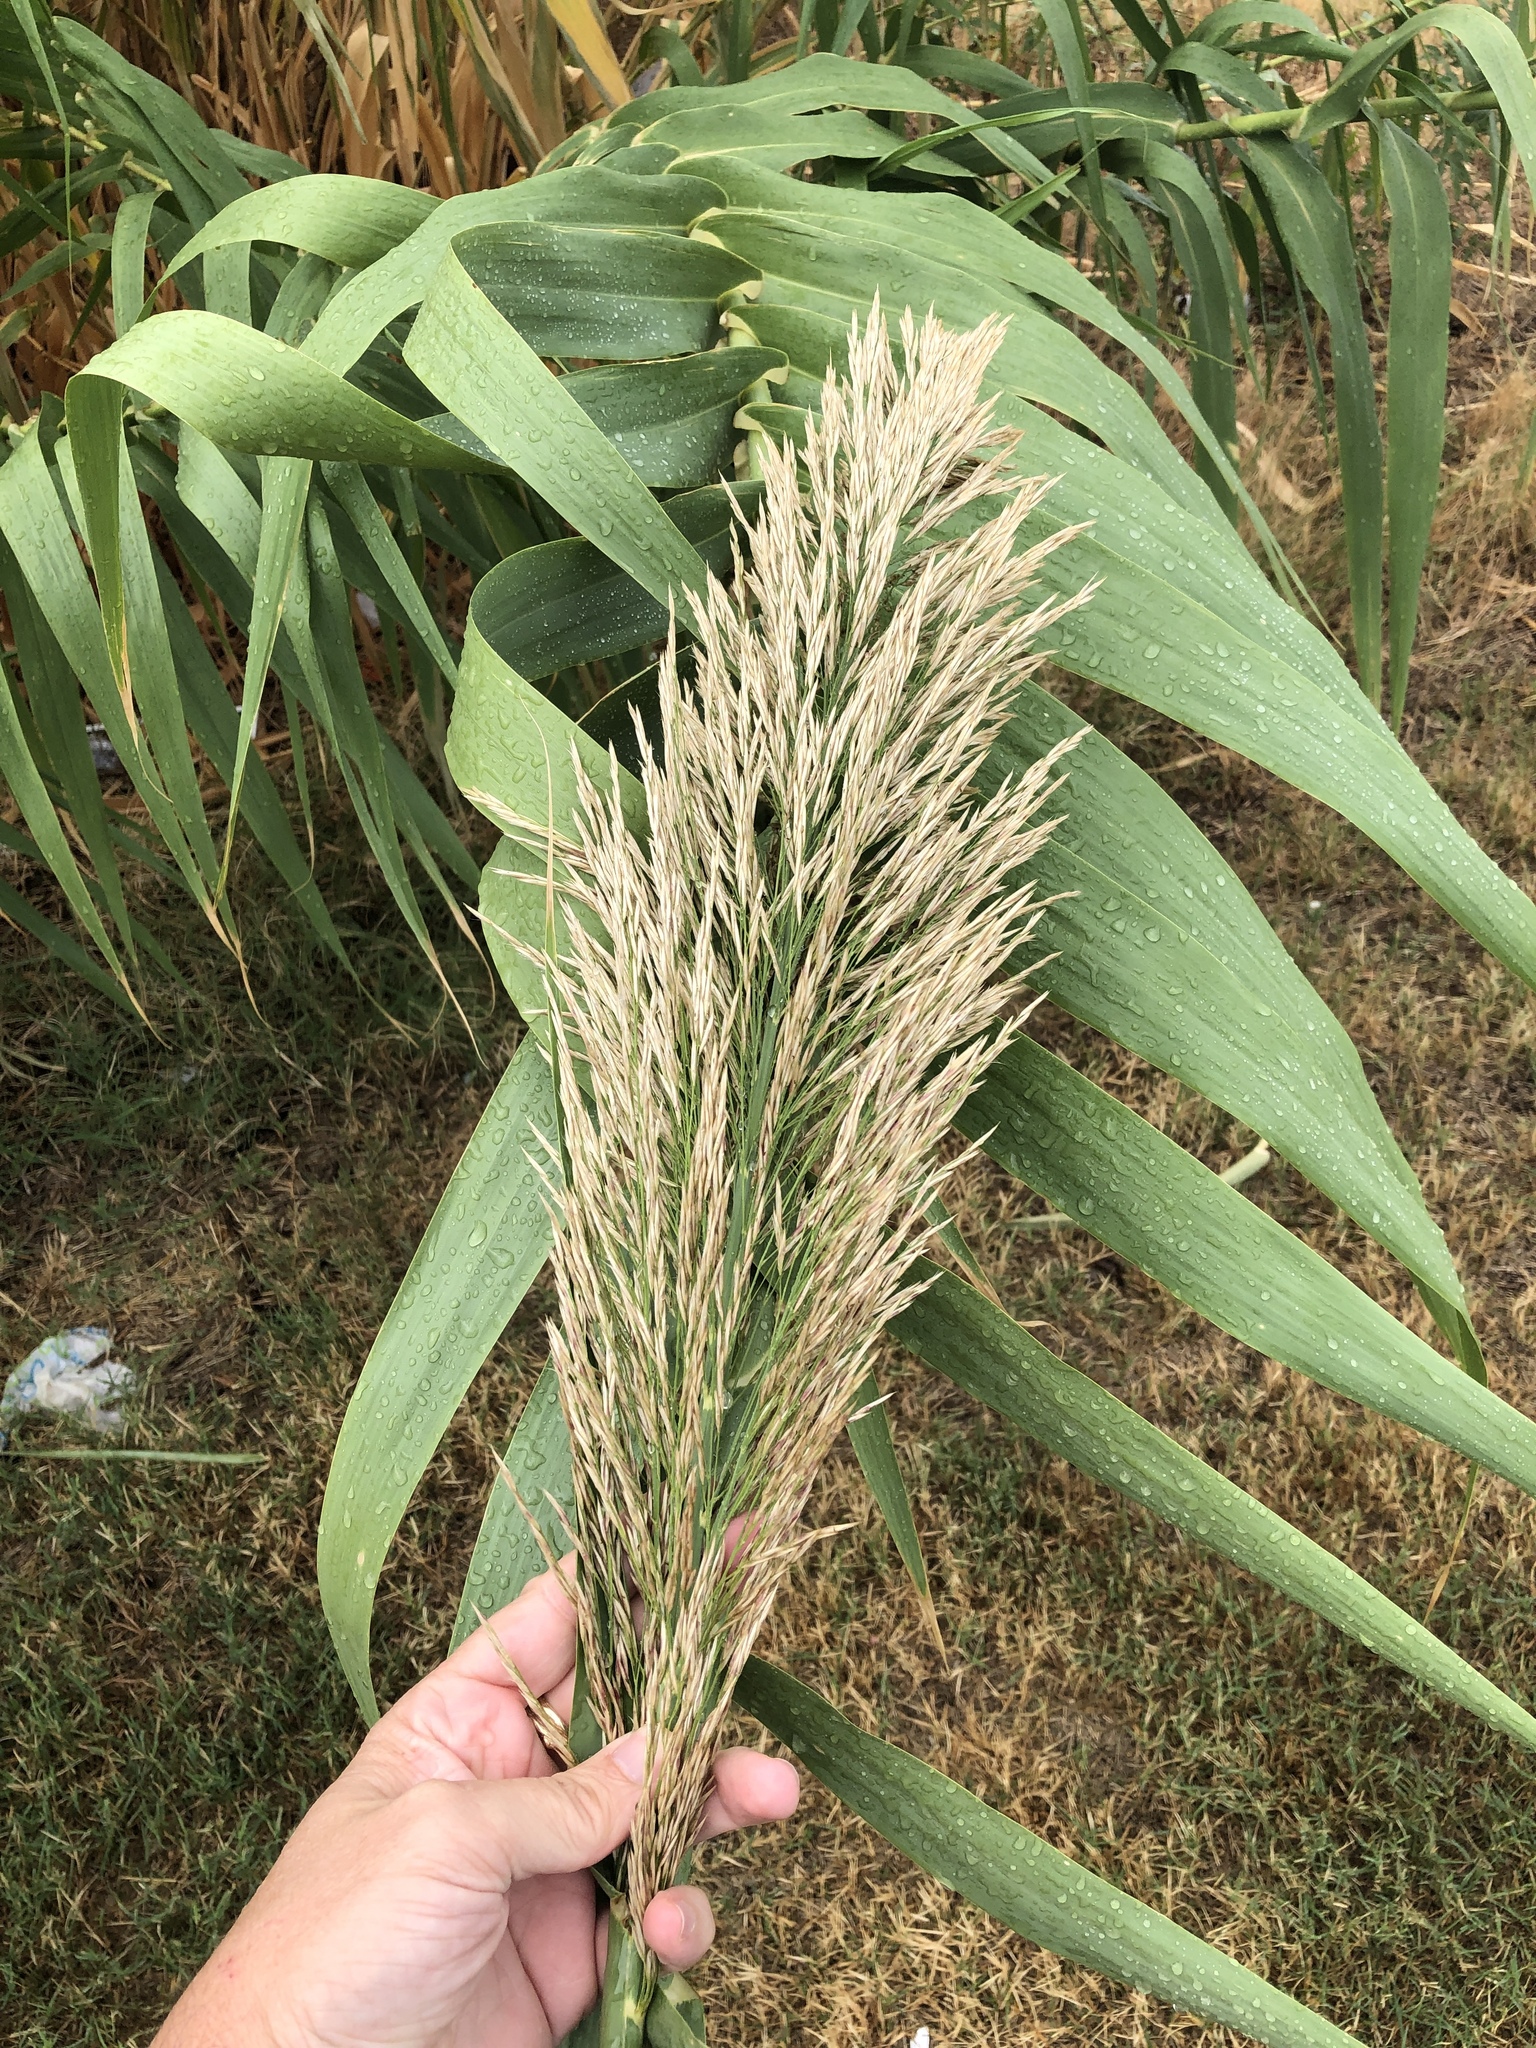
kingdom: Plantae
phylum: Tracheophyta
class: Liliopsida
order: Poales
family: Poaceae
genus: Arundo
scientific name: Arundo donax
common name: Giant reed
